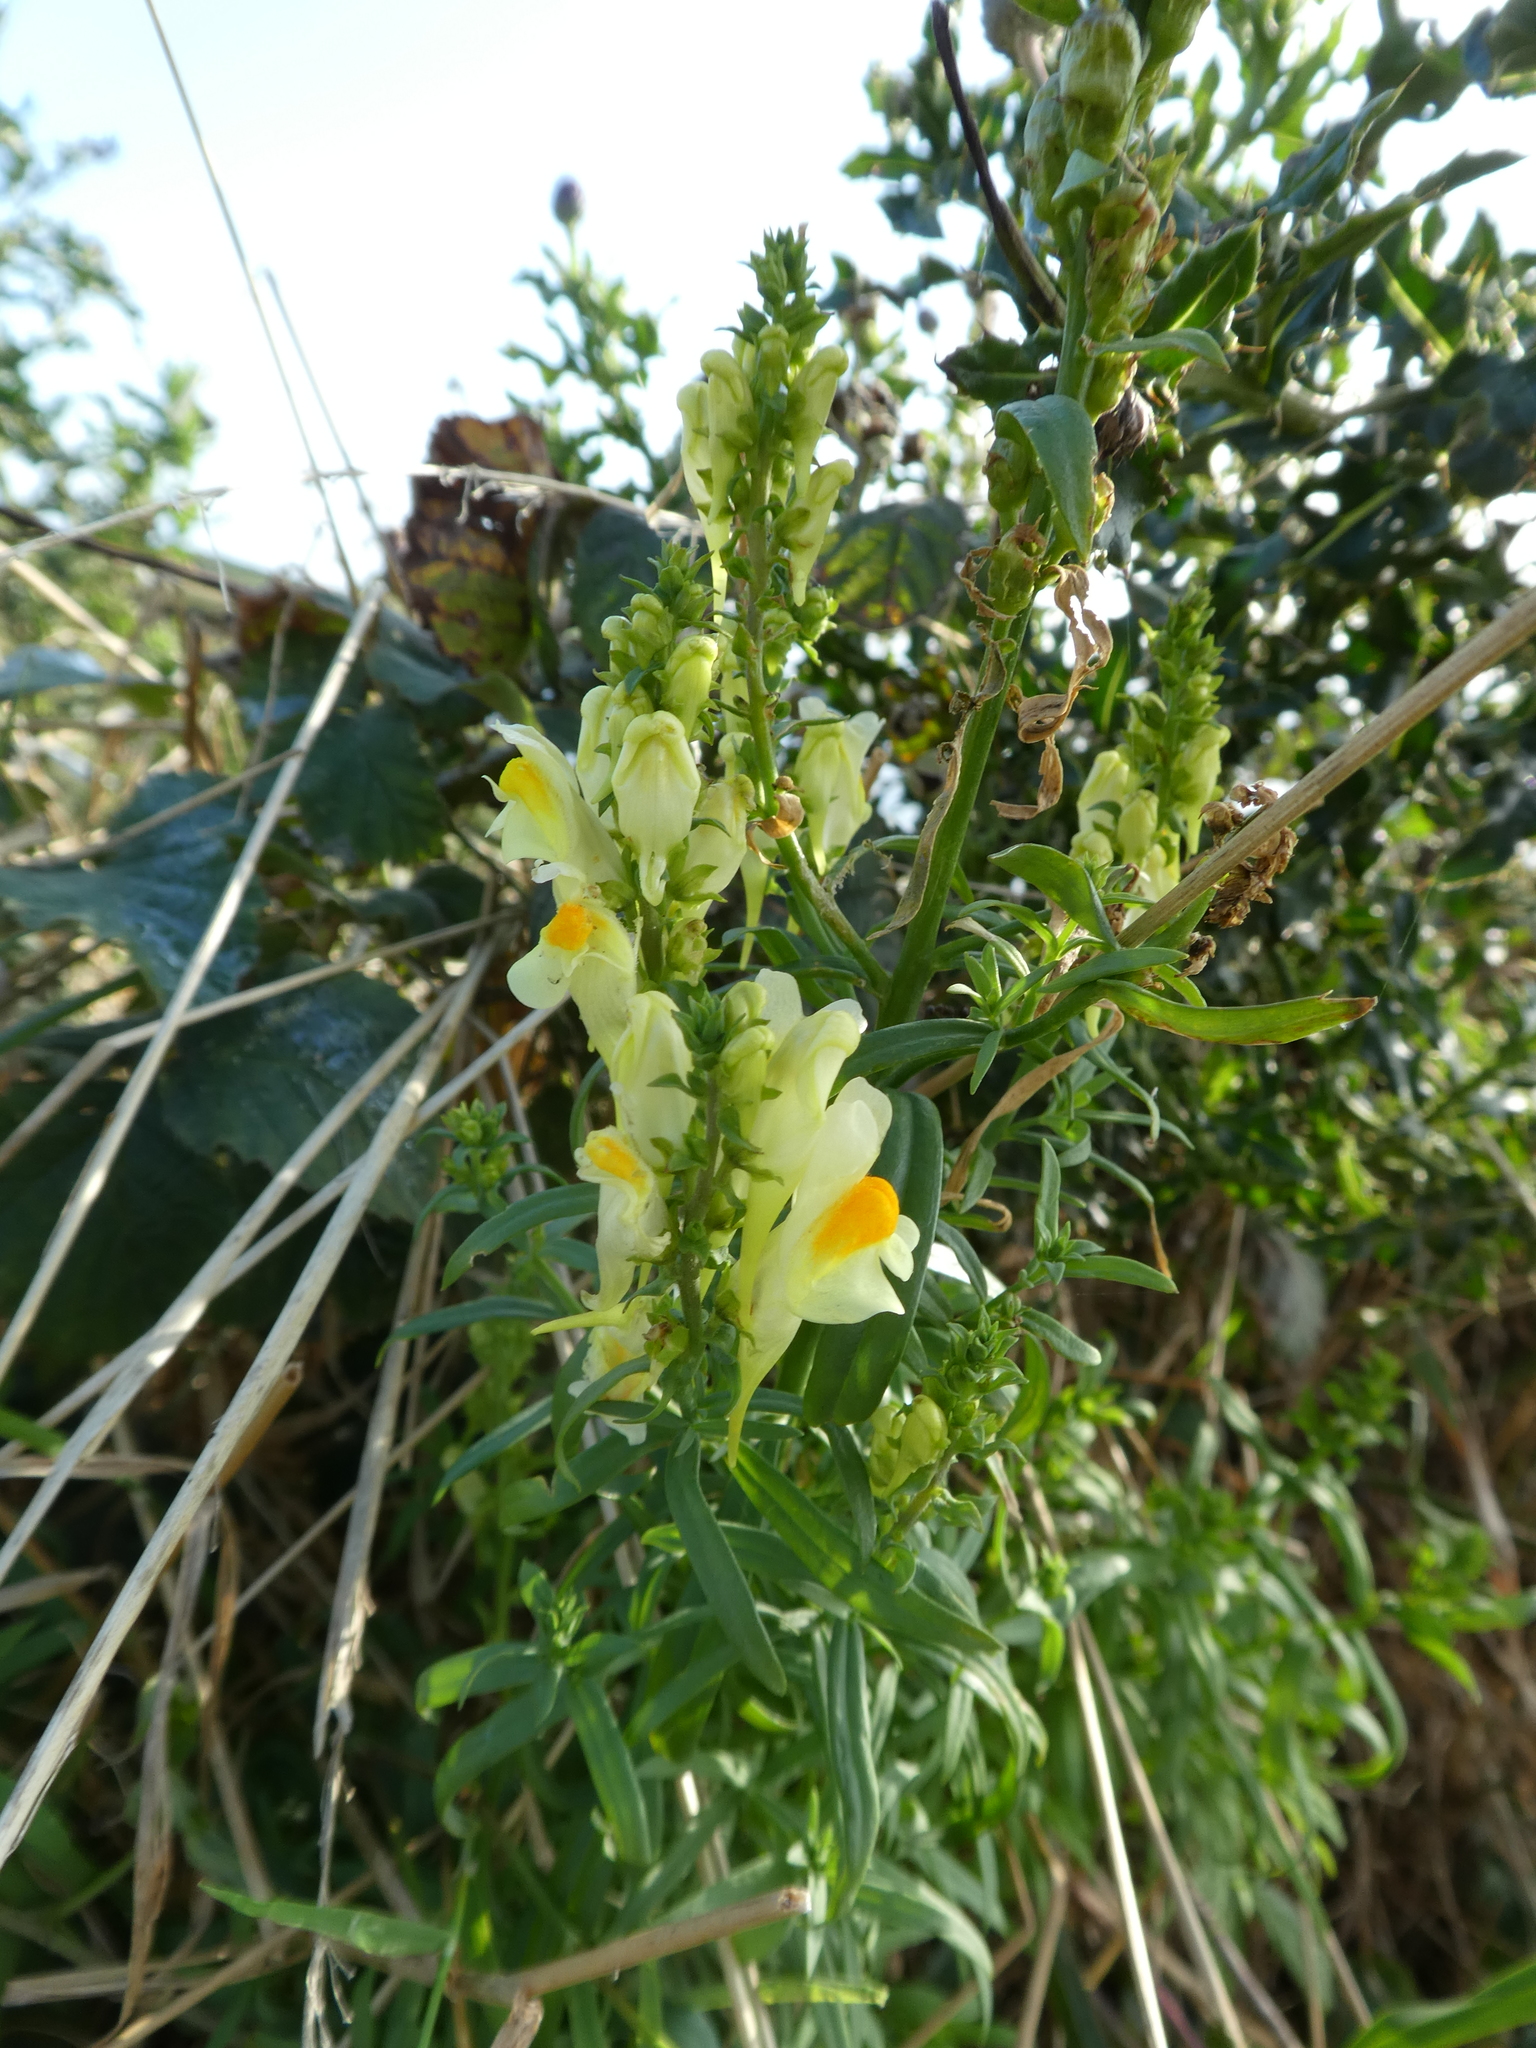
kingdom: Plantae
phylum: Tracheophyta
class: Magnoliopsida
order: Lamiales
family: Plantaginaceae
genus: Linaria
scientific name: Linaria vulgaris
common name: Butter and eggs
